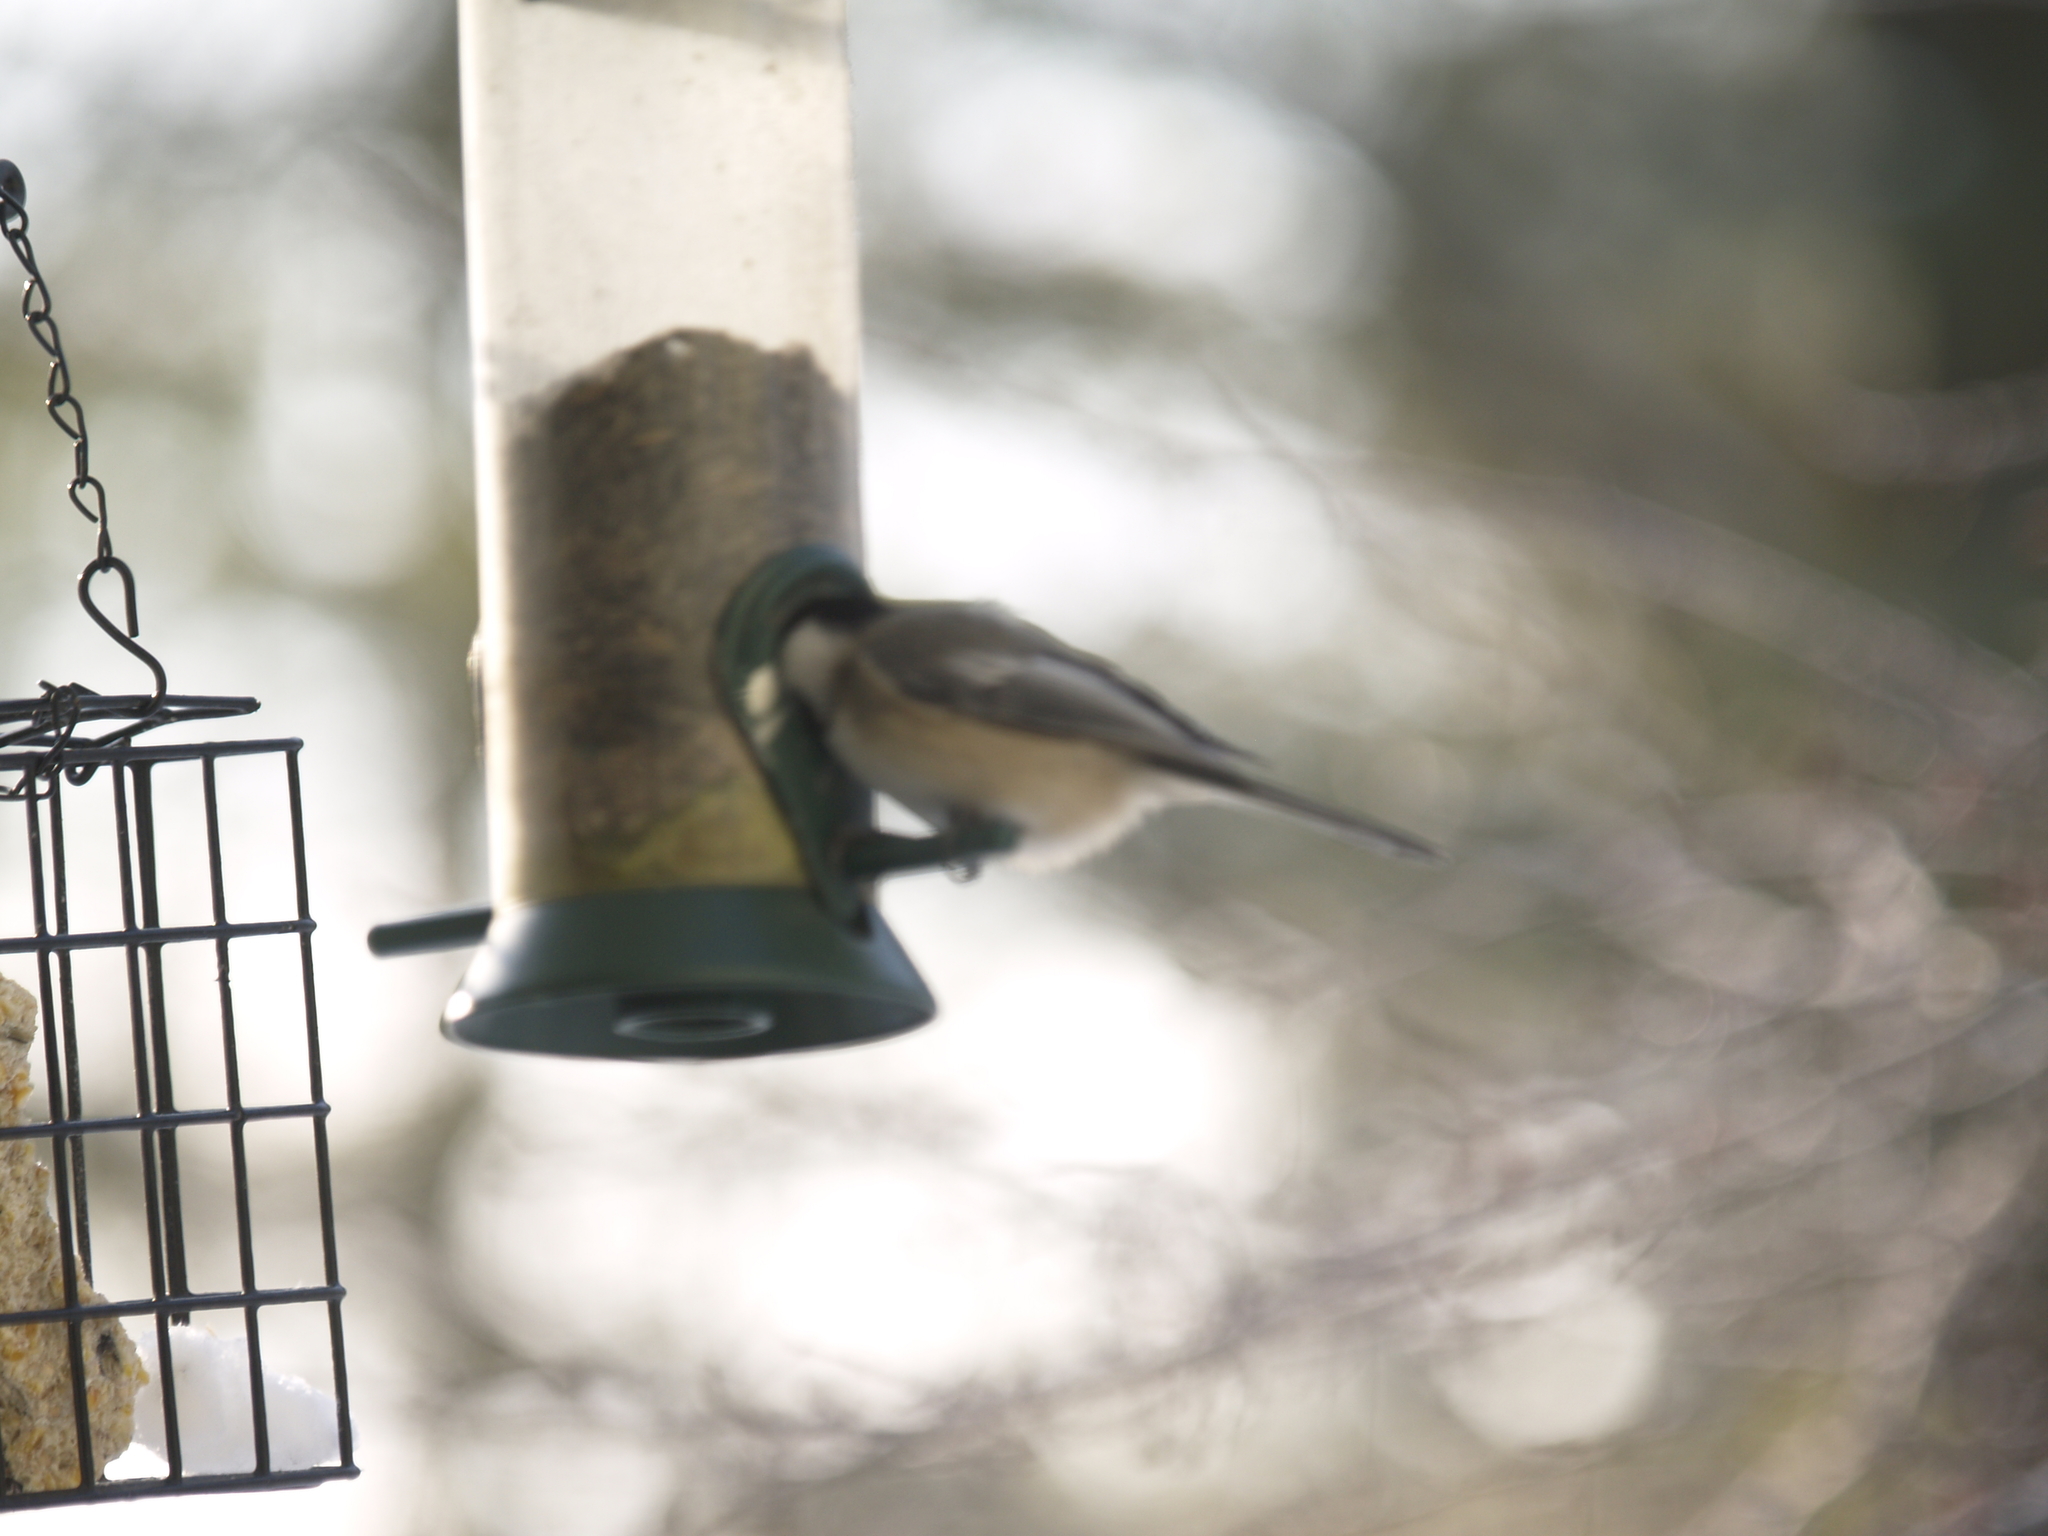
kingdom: Animalia
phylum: Chordata
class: Aves
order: Passeriformes
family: Paridae
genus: Poecile
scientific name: Poecile atricapillus
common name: Black-capped chickadee
